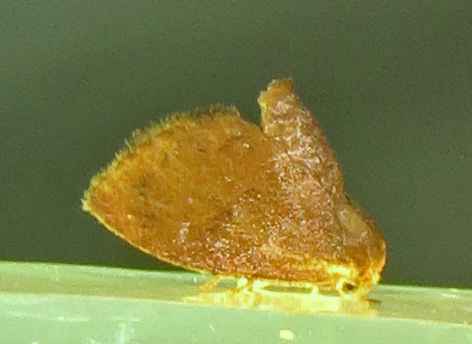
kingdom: Animalia
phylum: Arthropoda
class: Insecta
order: Lepidoptera
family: Limacodidae
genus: Heterogenea
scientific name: Heterogenea shurtleffi
